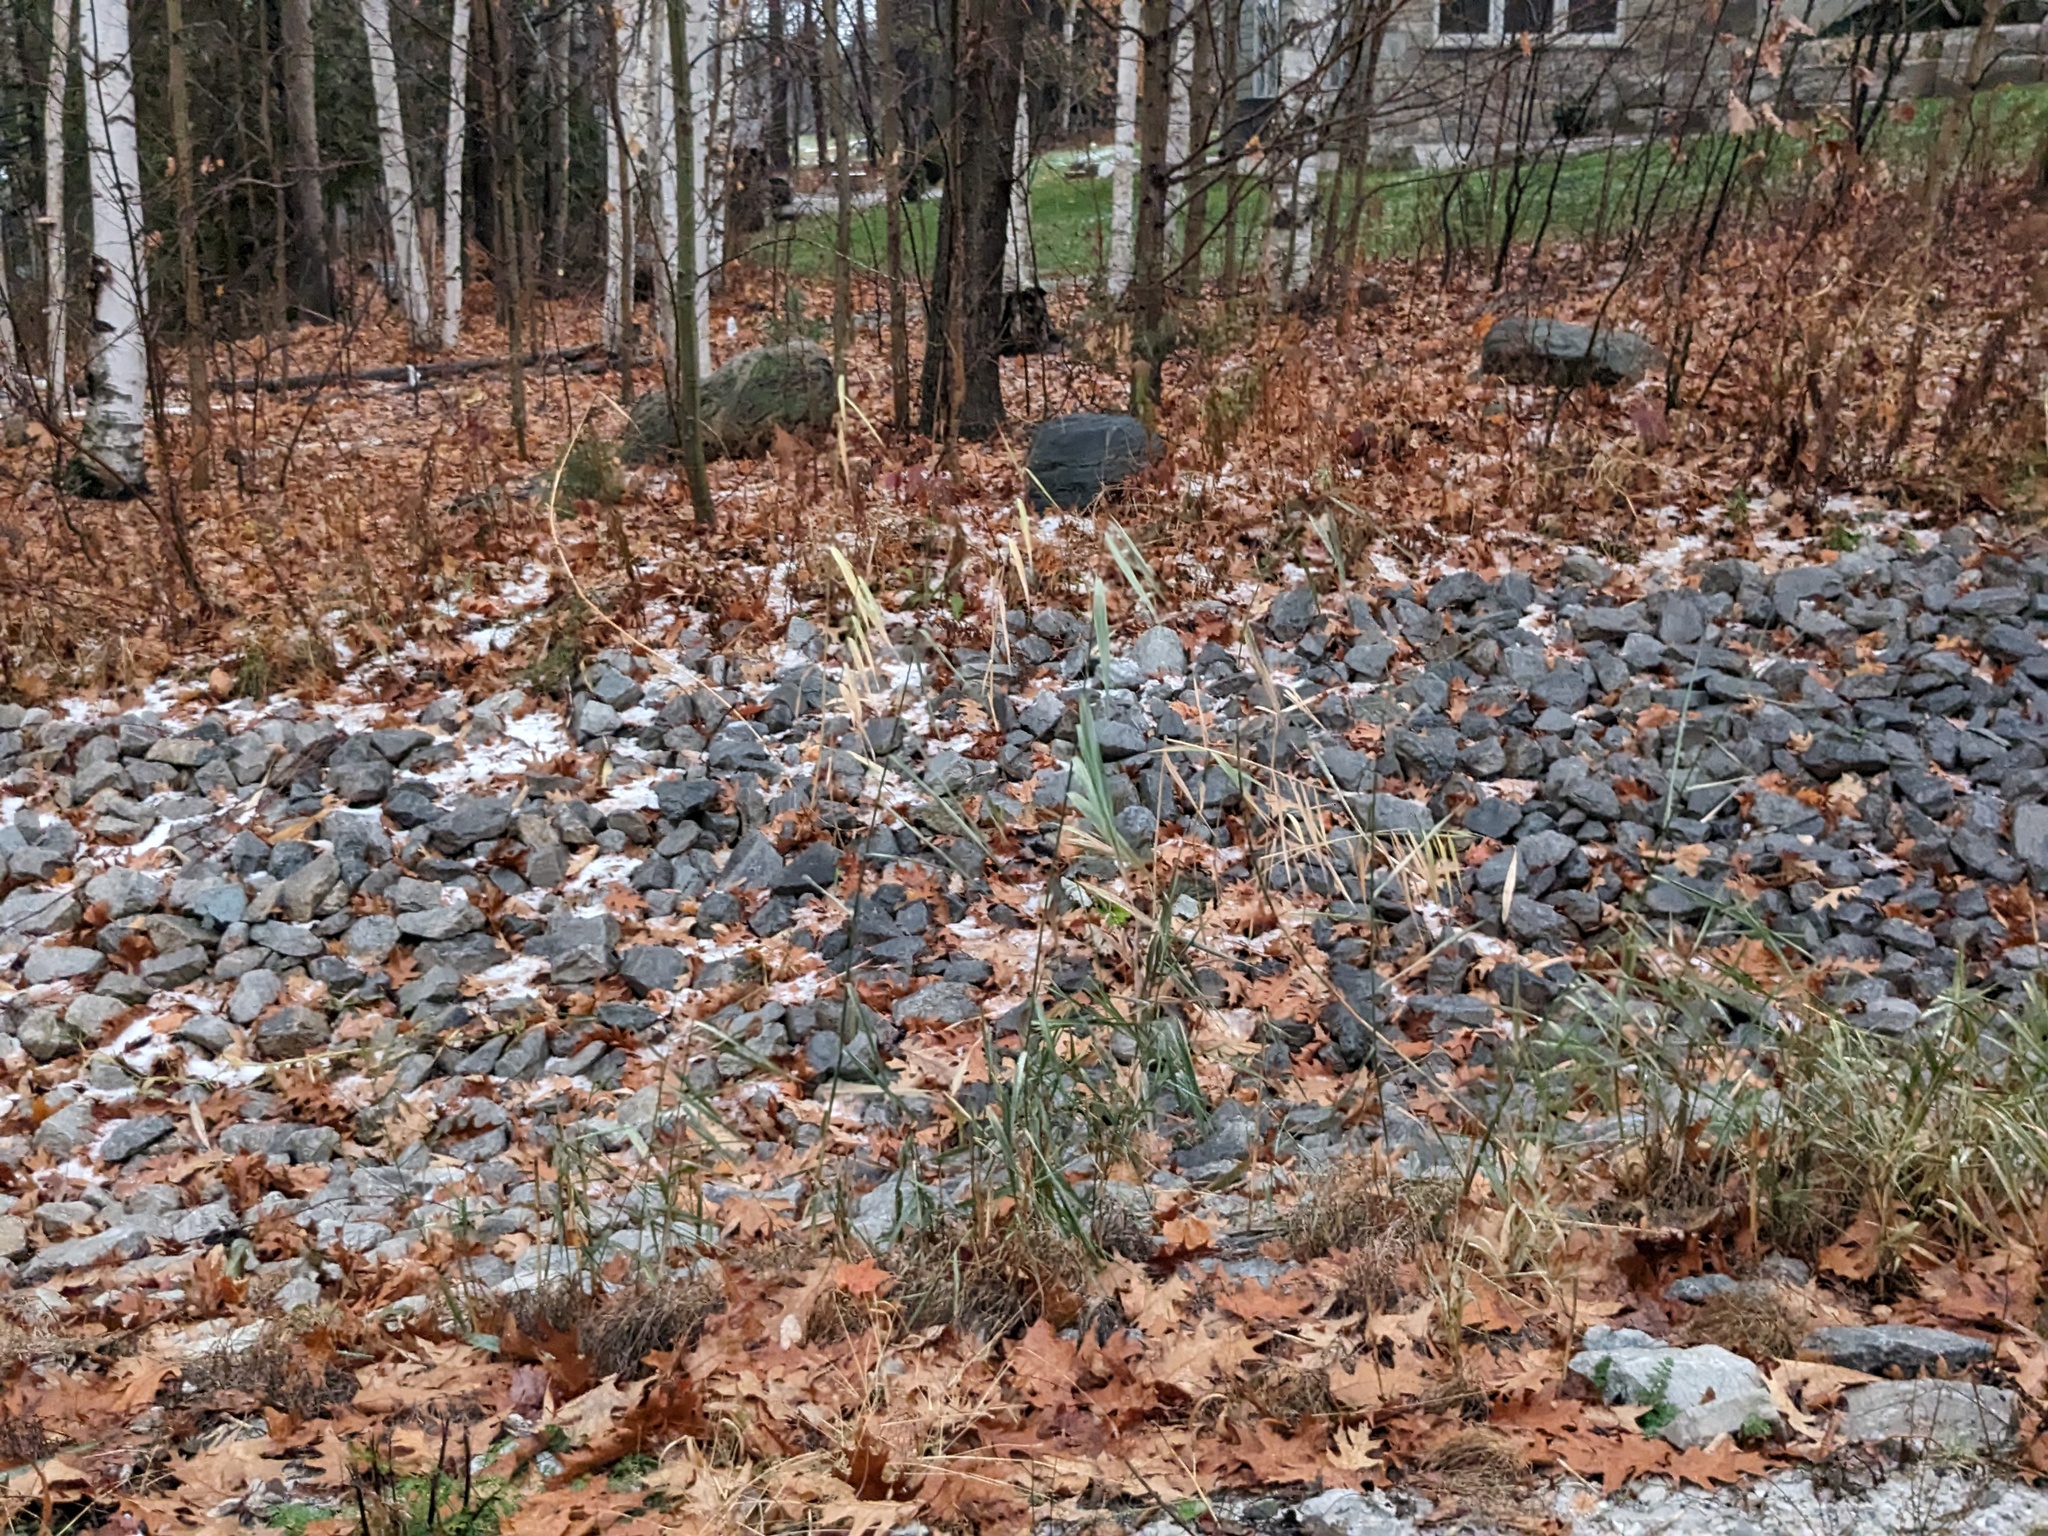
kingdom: Plantae
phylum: Tracheophyta
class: Liliopsida
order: Poales
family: Poaceae
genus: Phragmites
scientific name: Phragmites australis
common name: Common reed
